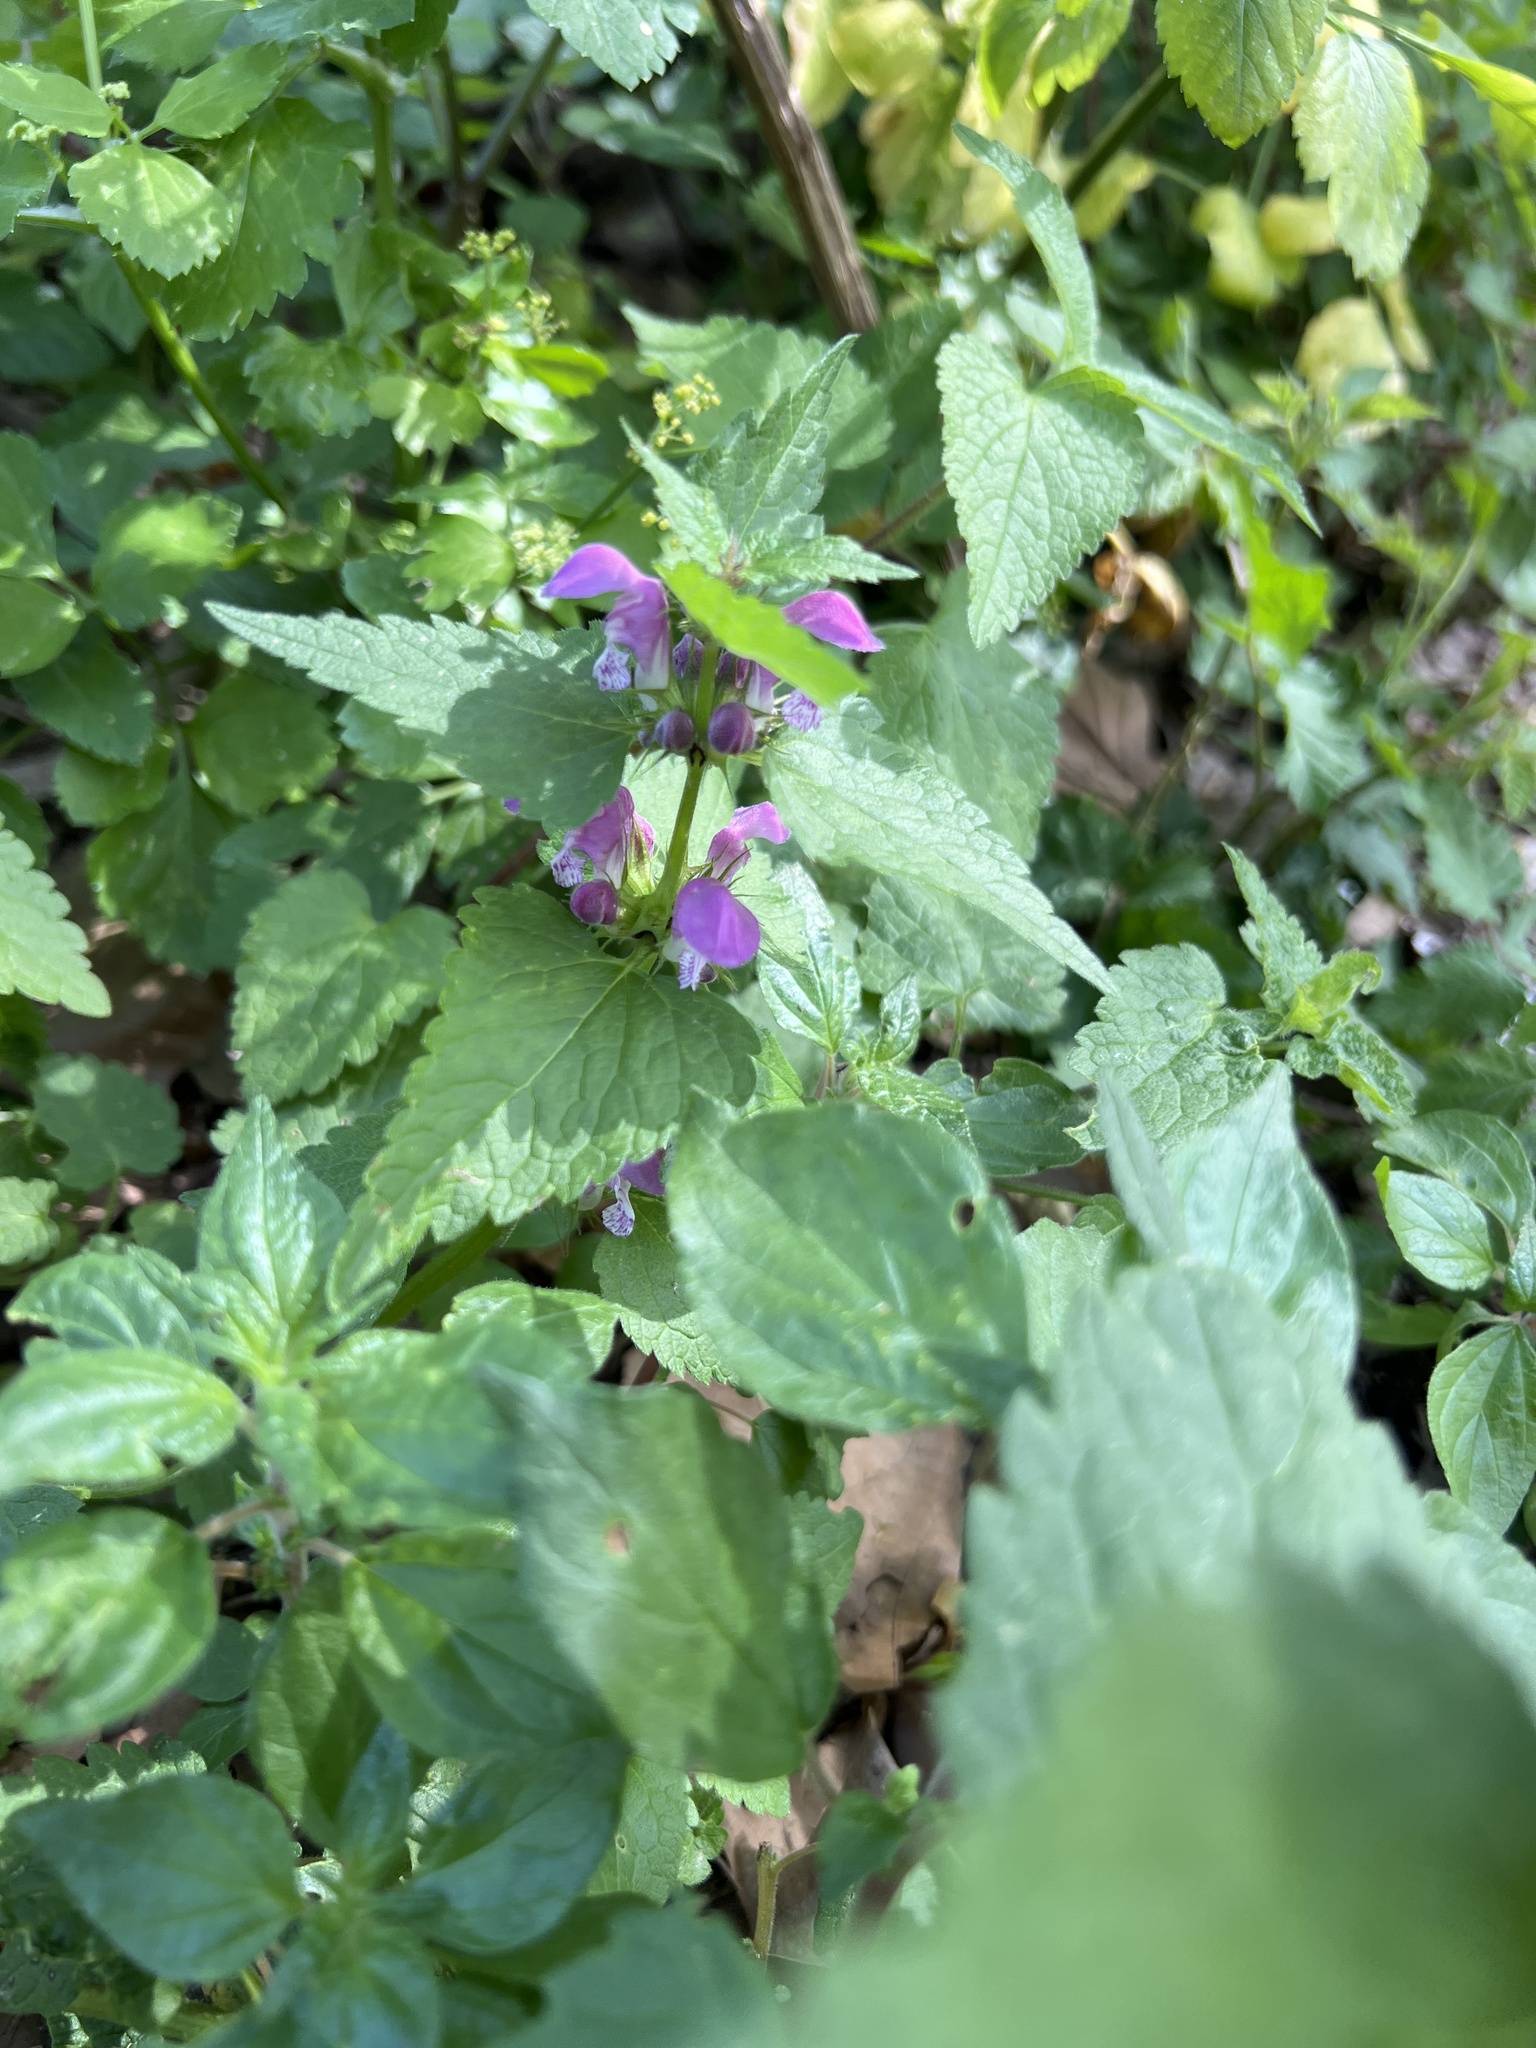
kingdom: Plantae
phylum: Tracheophyta
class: Magnoliopsida
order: Lamiales
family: Lamiaceae
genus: Lamium
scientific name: Lamium maculatum
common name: Spotted dead-nettle
